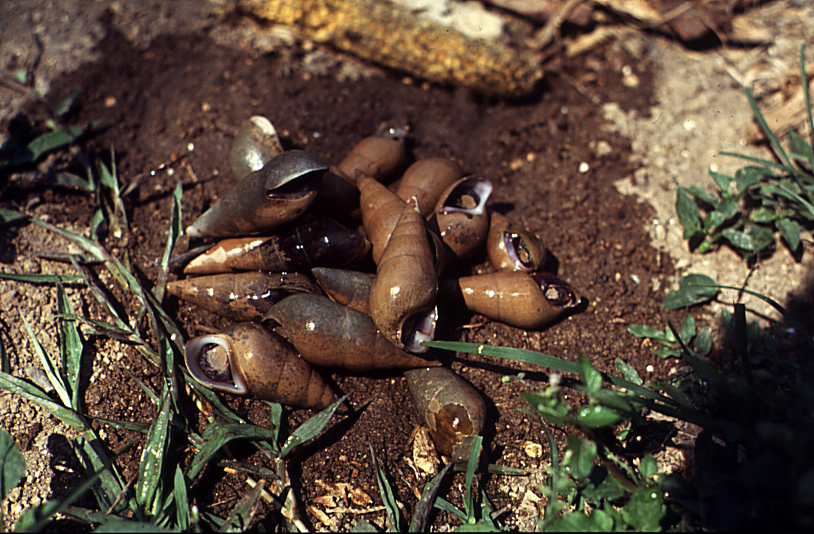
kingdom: Animalia
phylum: Mollusca
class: Gastropoda
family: Pachychilidae
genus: Pachychilus
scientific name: Pachychilus indiorum
